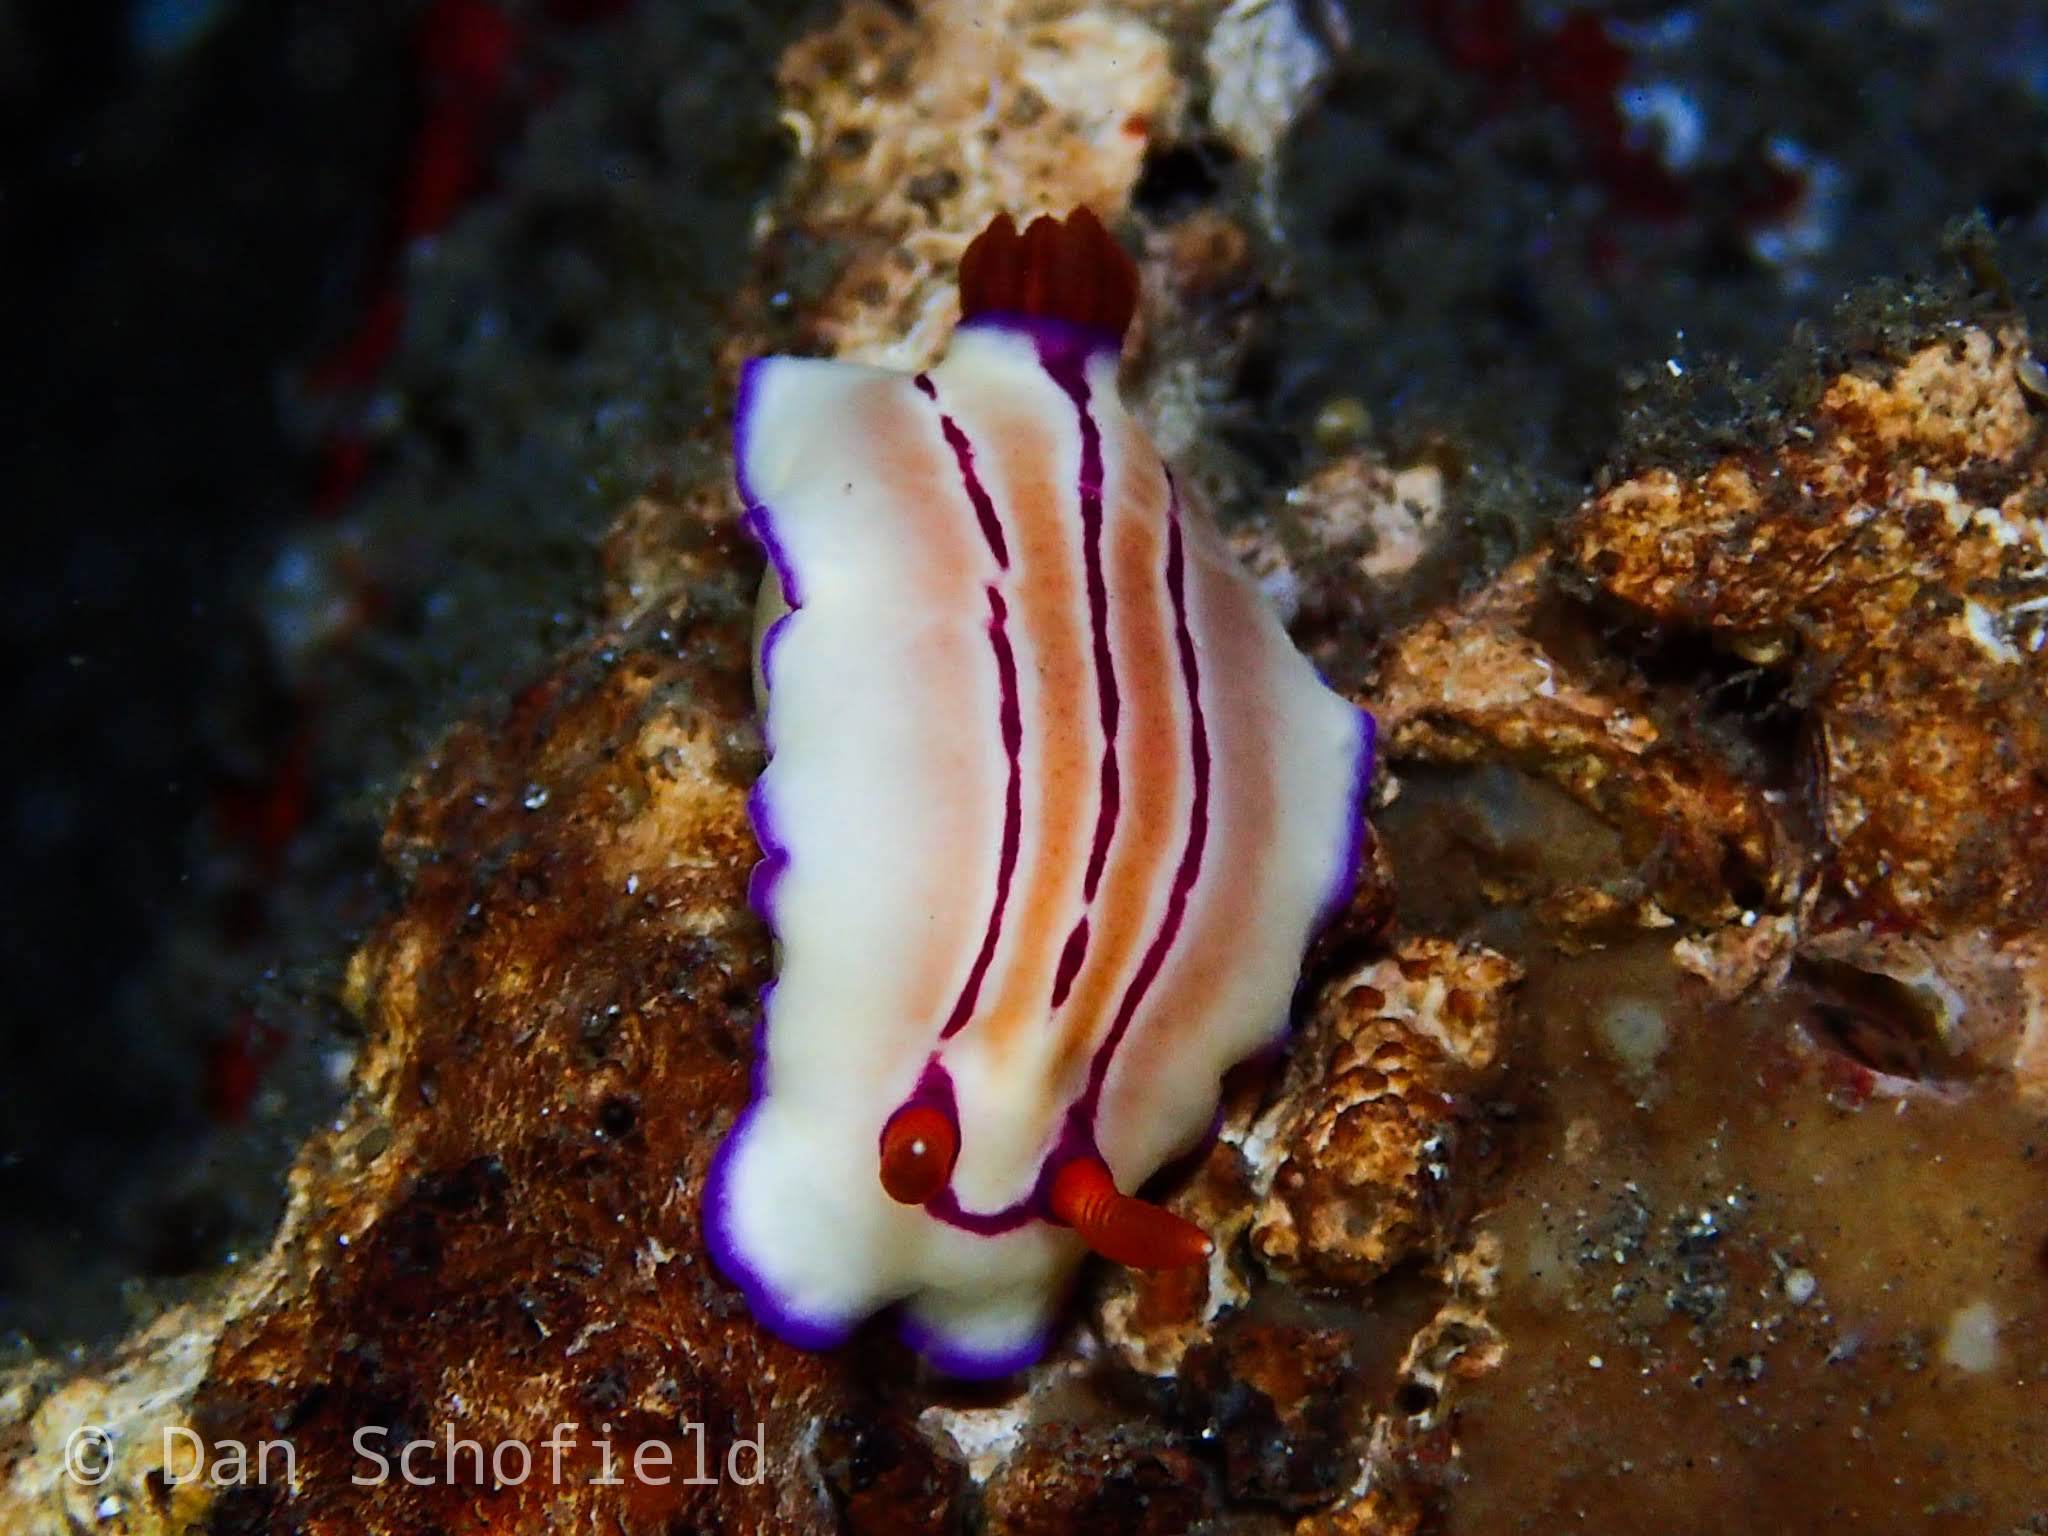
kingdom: Animalia
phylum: Mollusca
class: Gastropoda
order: Nudibranchia
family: Chromodorididae
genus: Hypselodoris
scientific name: Hypselodoris emma
